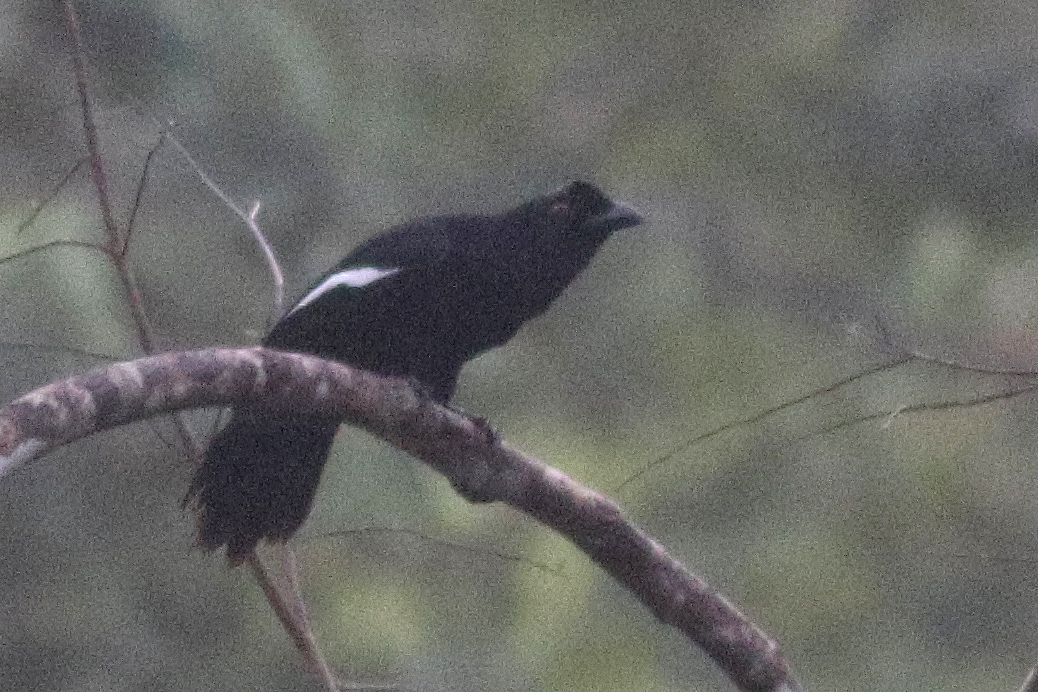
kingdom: Animalia
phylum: Chordata
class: Aves
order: Passeriformes
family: Corvidae
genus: Platysmurus
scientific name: Platysmurus leucopterus
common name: Black magpie
